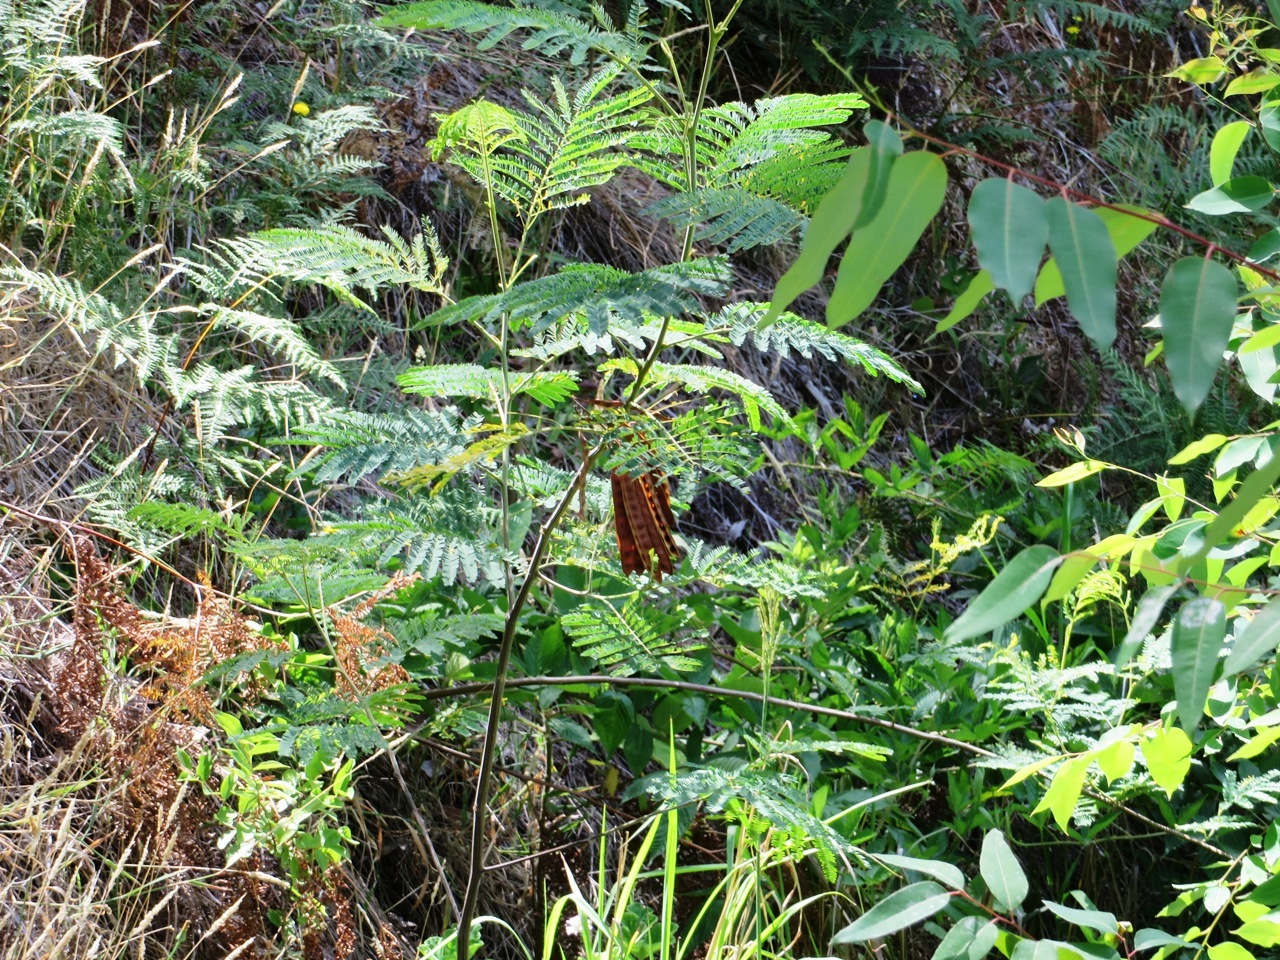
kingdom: Plantae
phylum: Tracheophyta
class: Magnoliopsida
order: Fabales
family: Fabaceae
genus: Paraserianthes
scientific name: Paraserianthes lophantha
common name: Plume albizia
